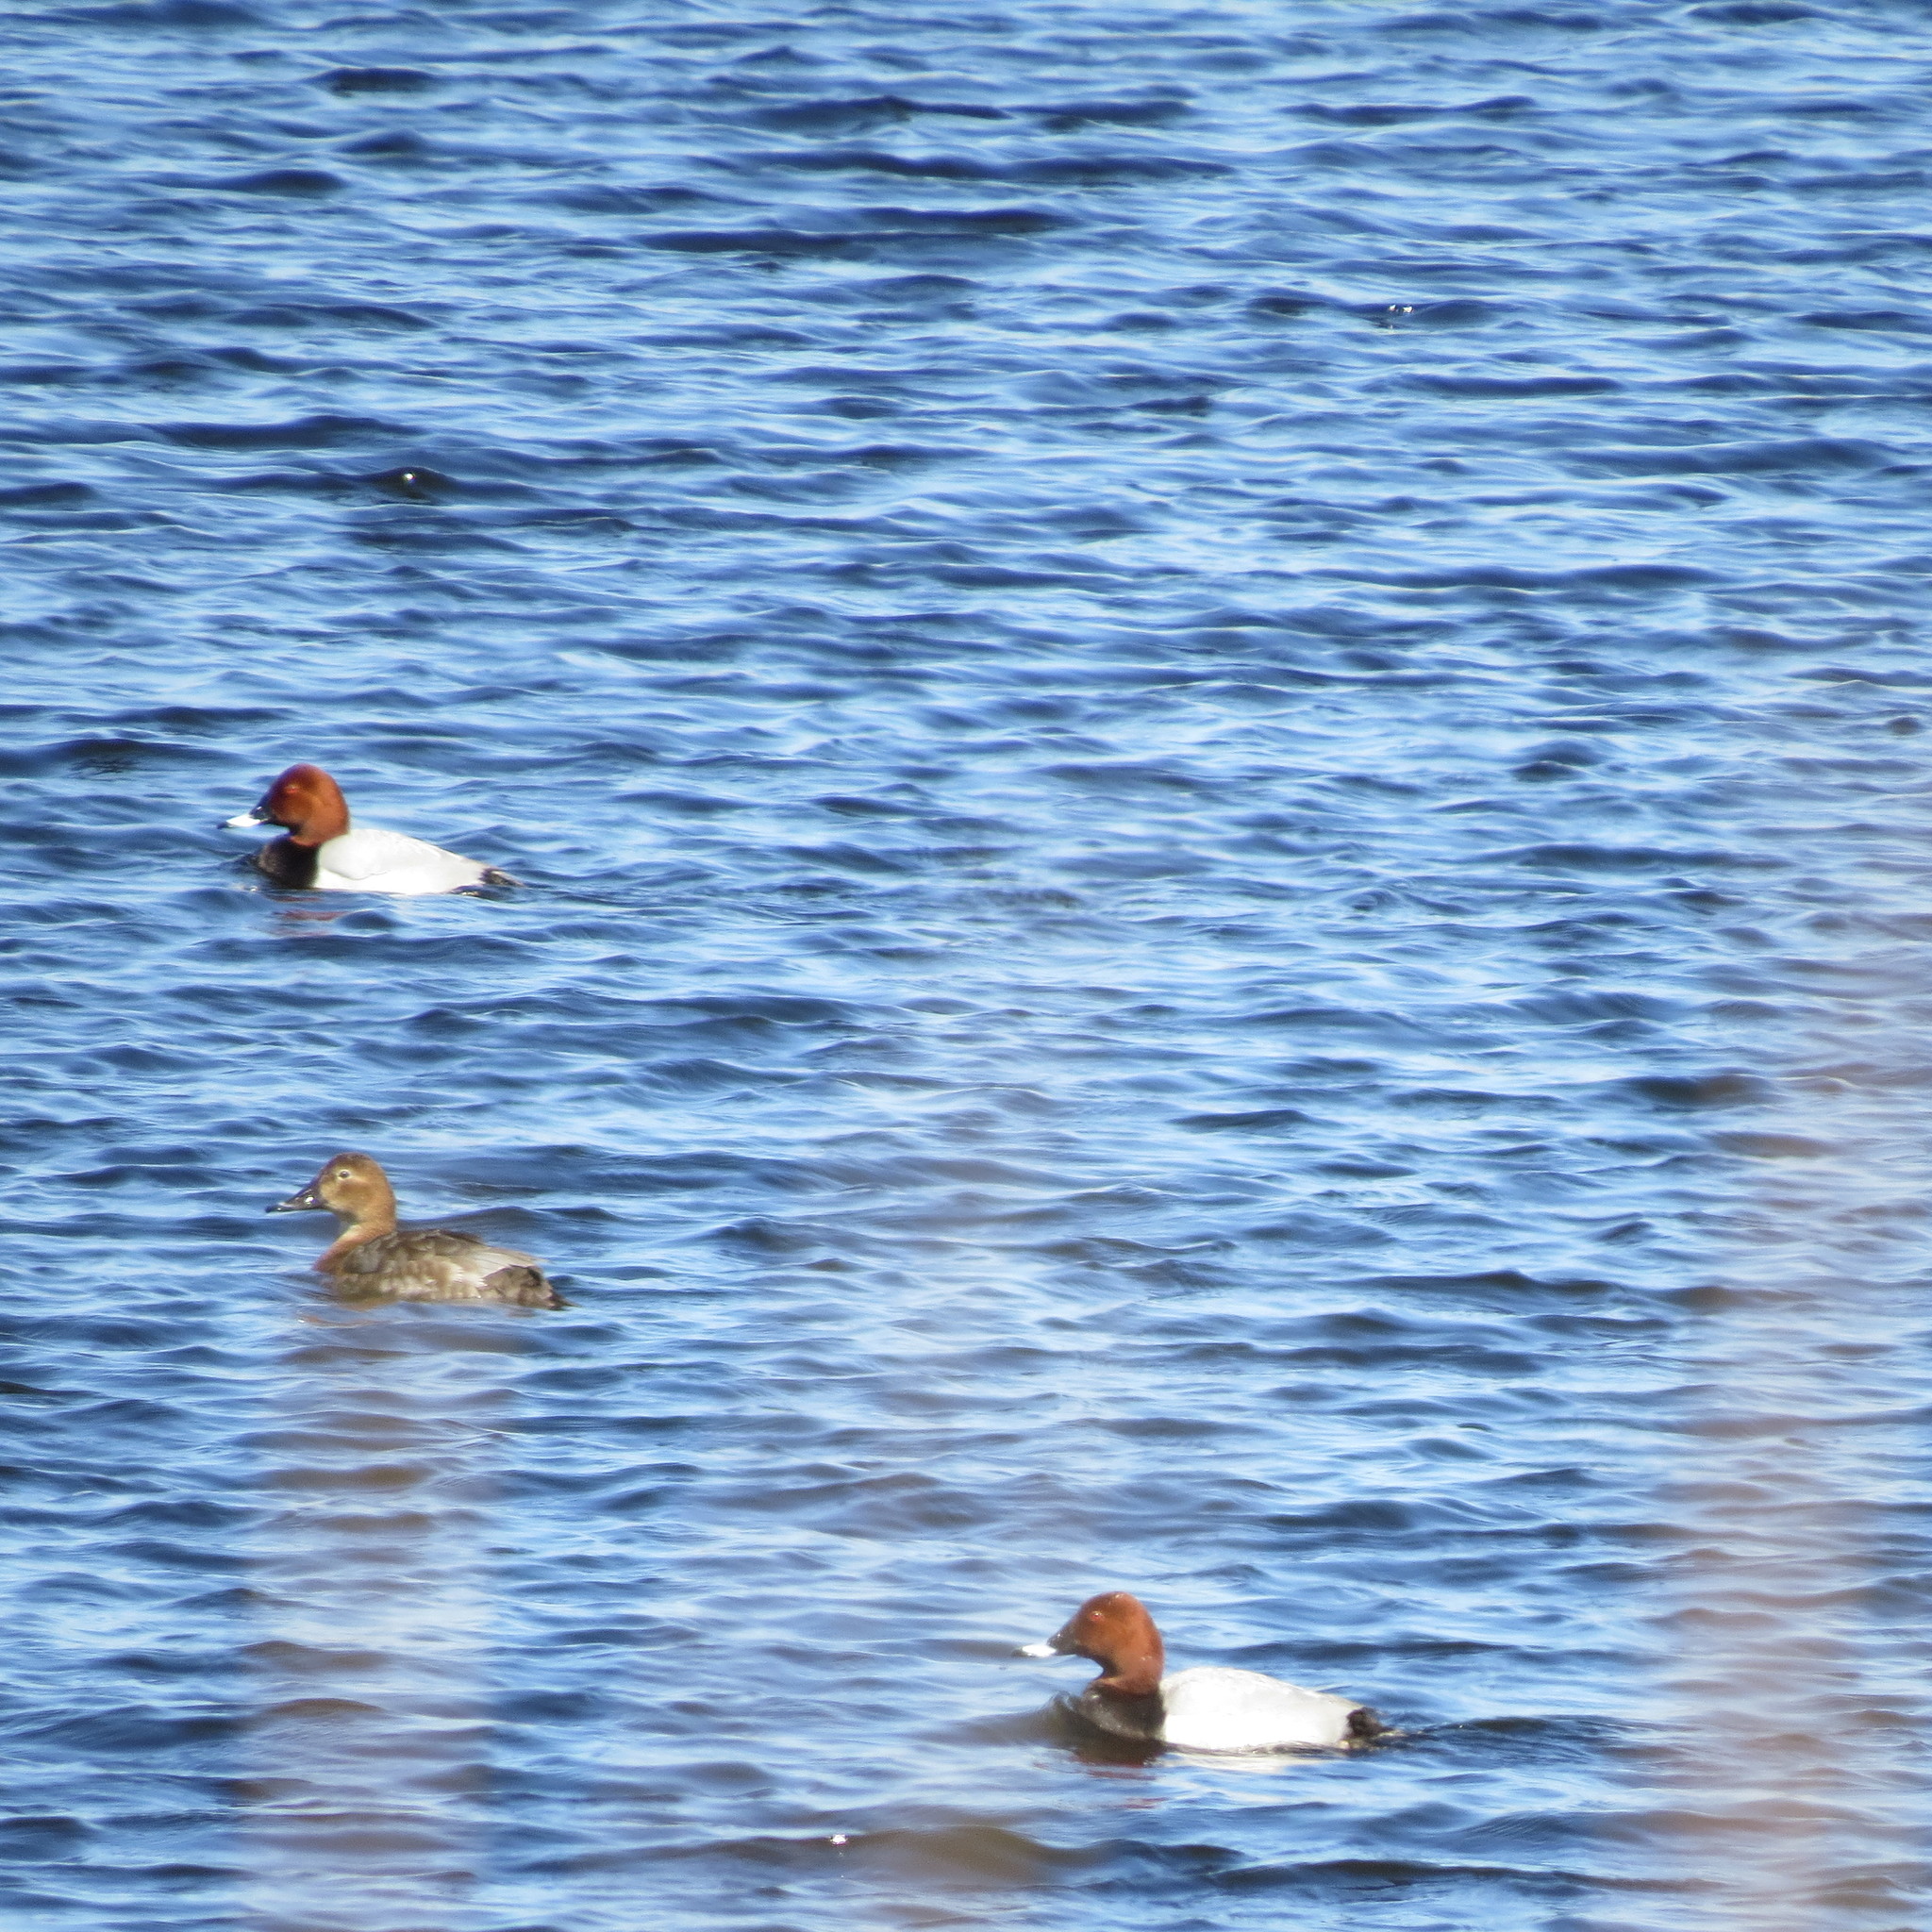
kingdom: Animalia
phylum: Chordata
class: Aves
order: Anseriformes
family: Anatidae
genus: Aythya
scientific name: Aythya ferina
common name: Common pochard
